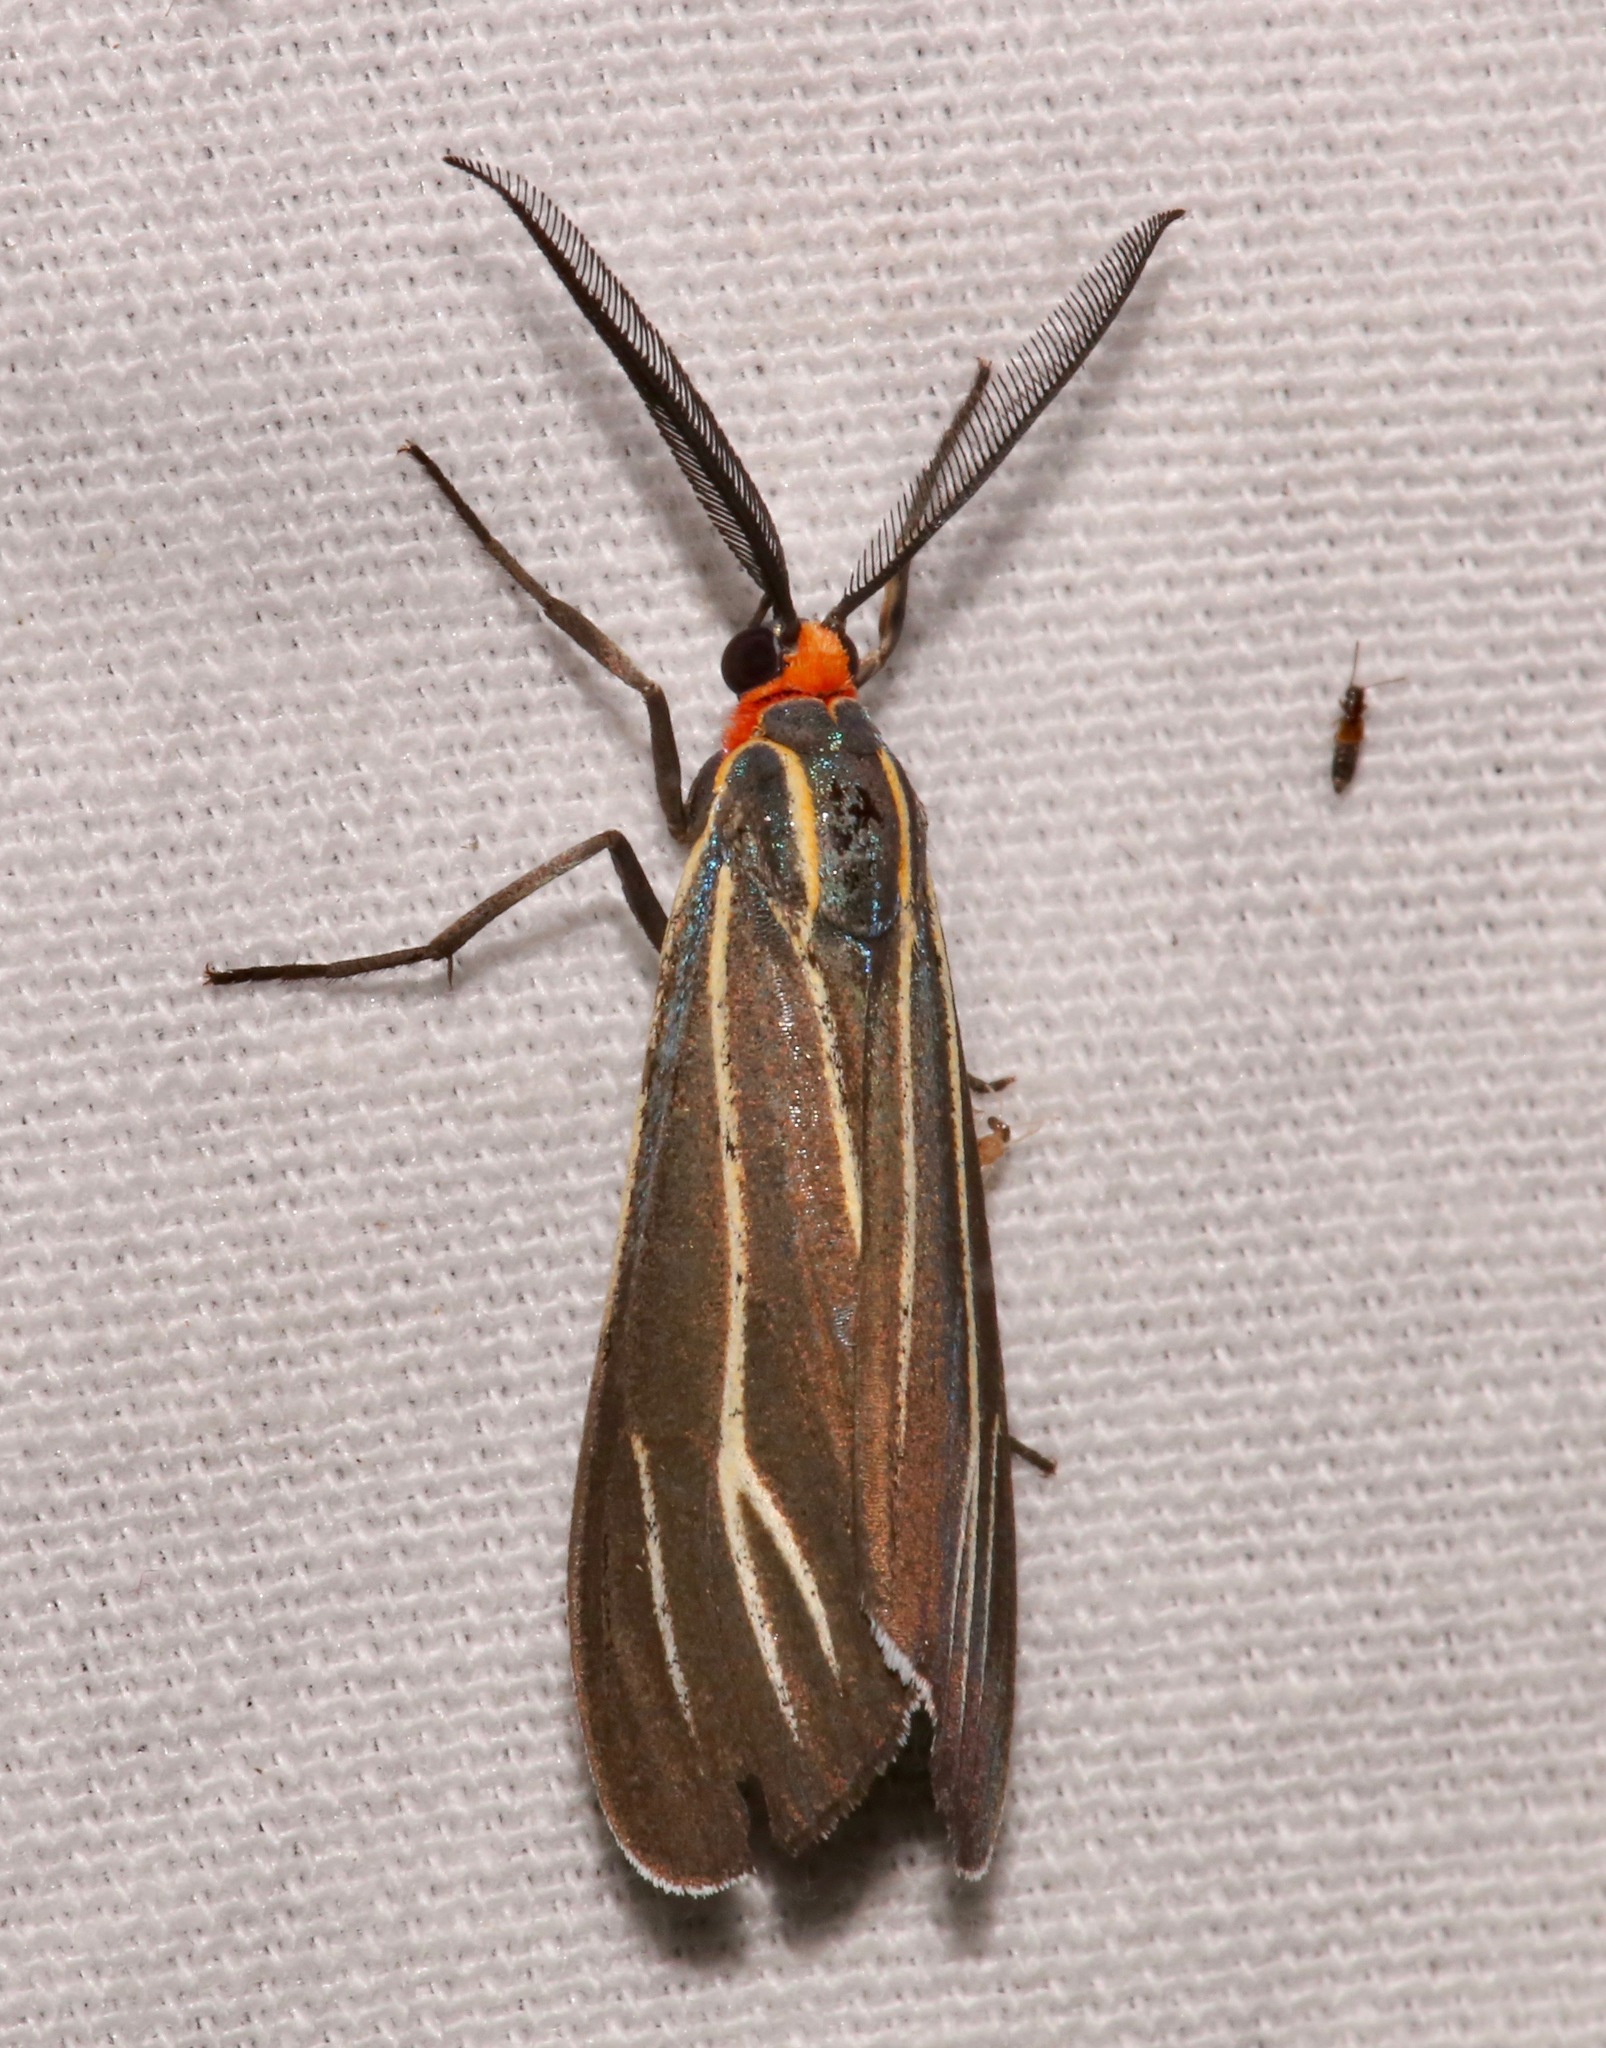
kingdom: Animalia
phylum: Arthropoda
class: Insecta
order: Lepidoptera
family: Erebidae
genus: Ctenucha
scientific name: Ctenucha venosa
